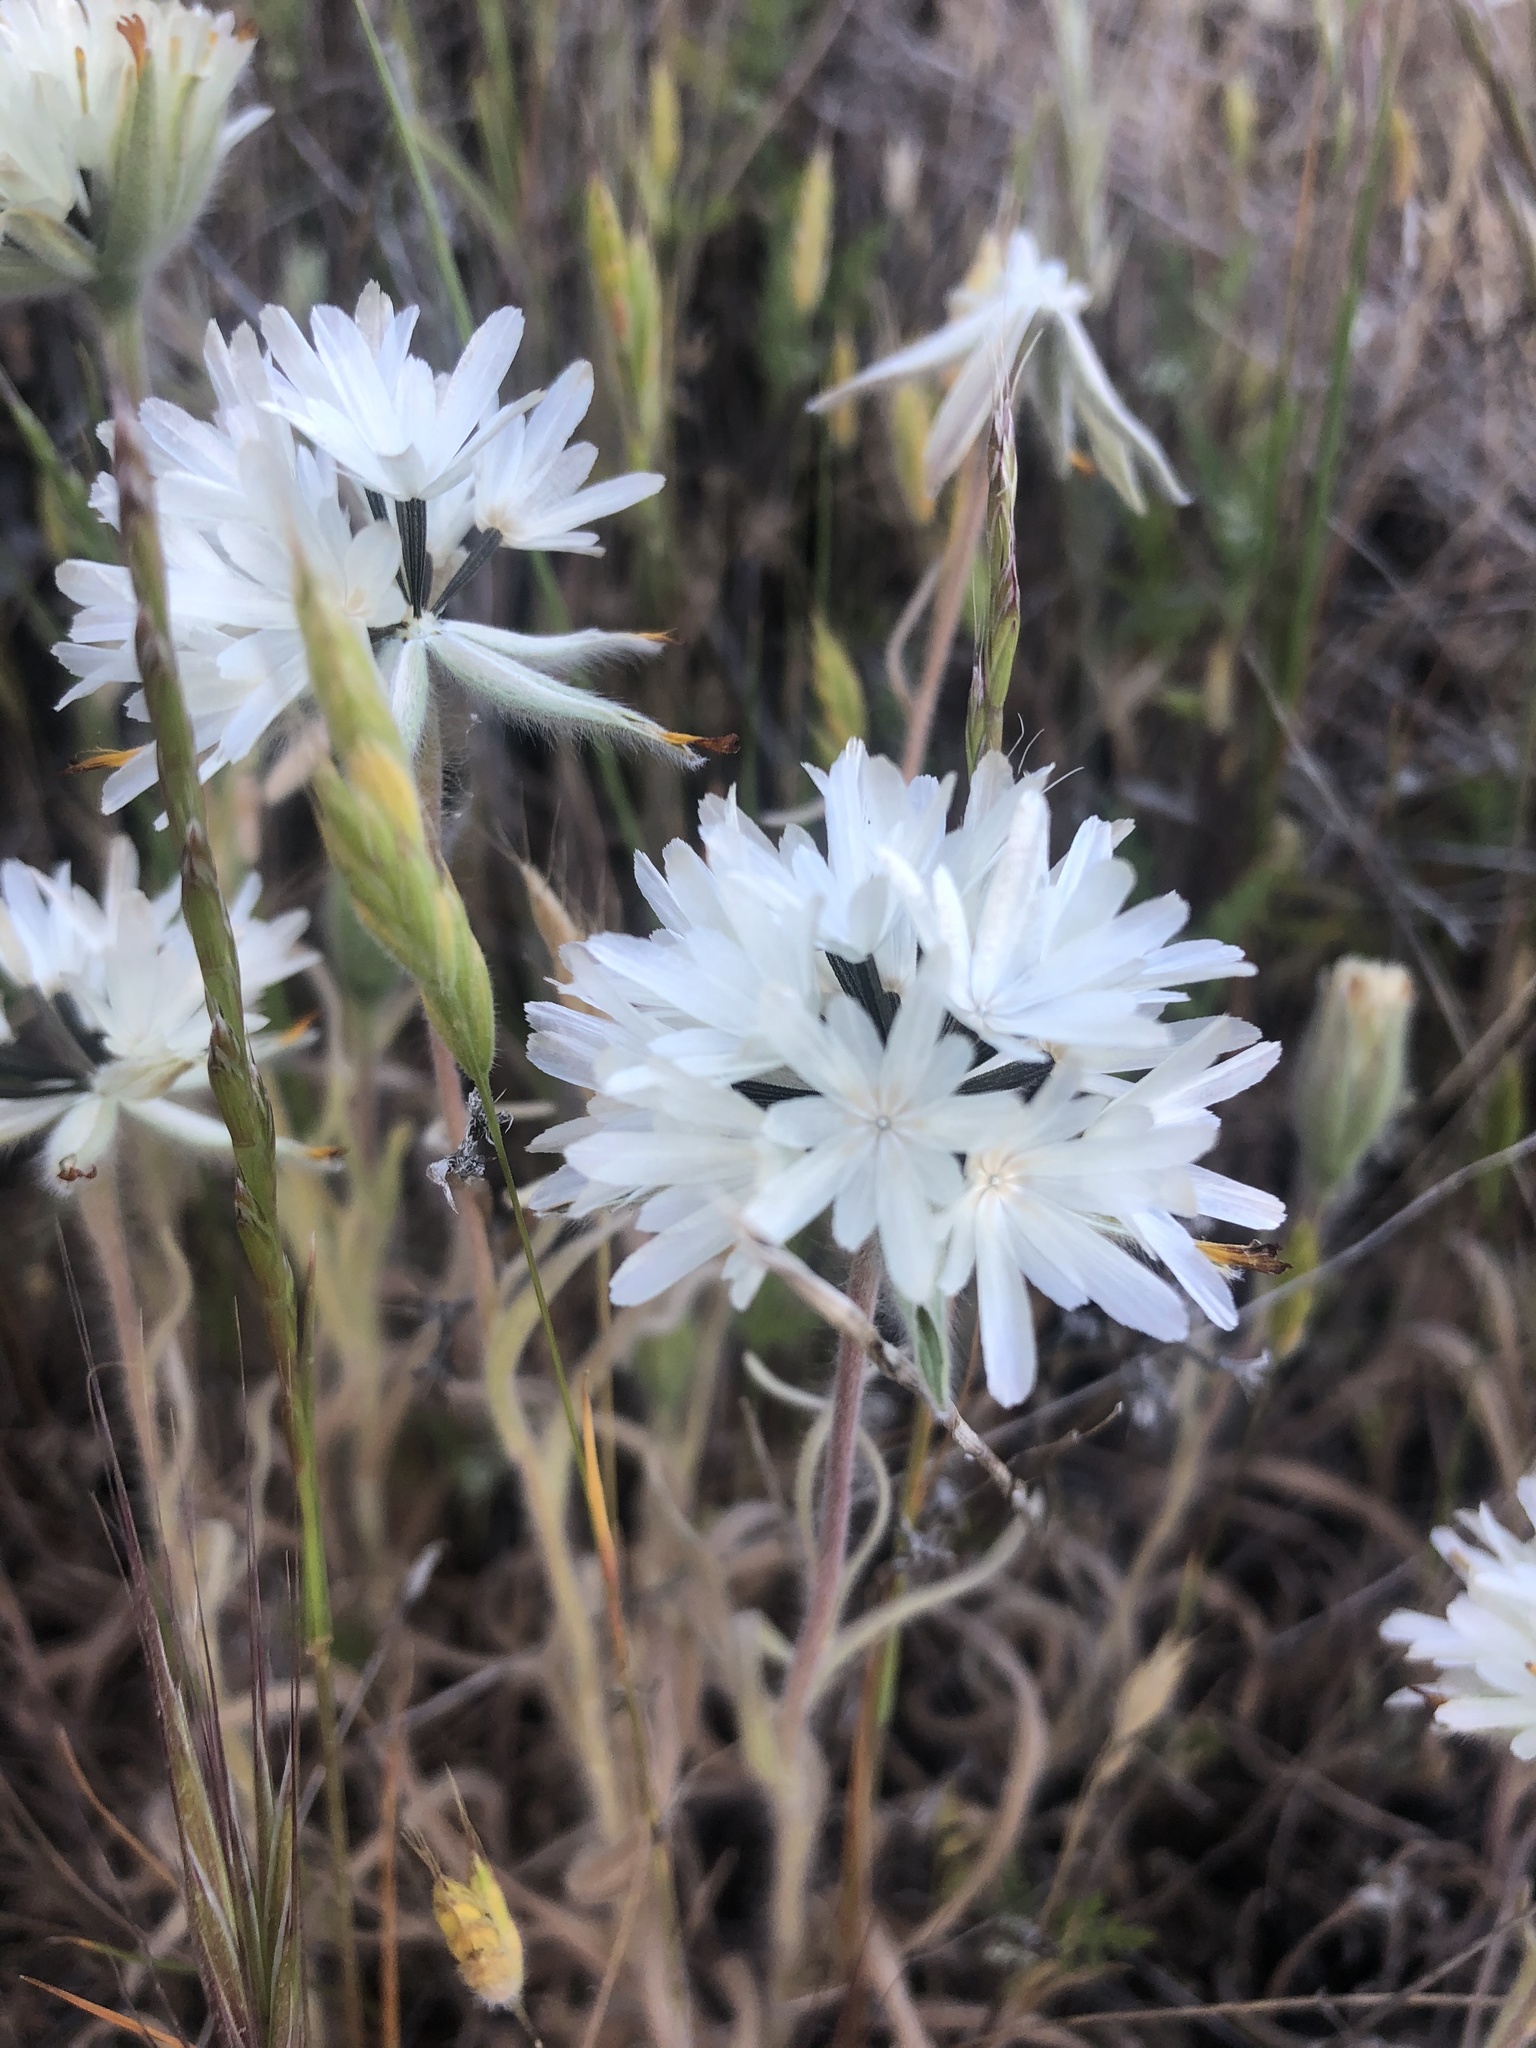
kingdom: Plantae
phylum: Tracheophyta
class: Magnoliopsida
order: Asterales
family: Asteraceae
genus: Achyrachaena
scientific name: Achyrachaena mollis
